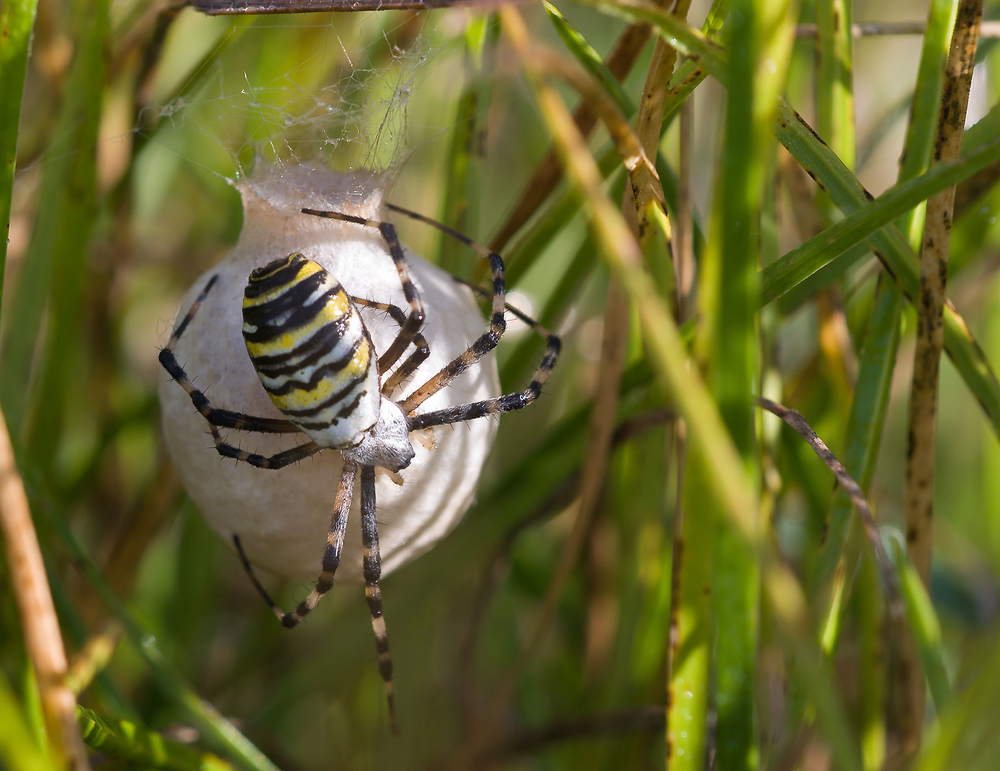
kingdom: Animalia
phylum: Arthropoda
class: Arachnida
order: Araneae
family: Araneidae
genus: Argiope
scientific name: Argiope bruennichi
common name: Wasp spider
